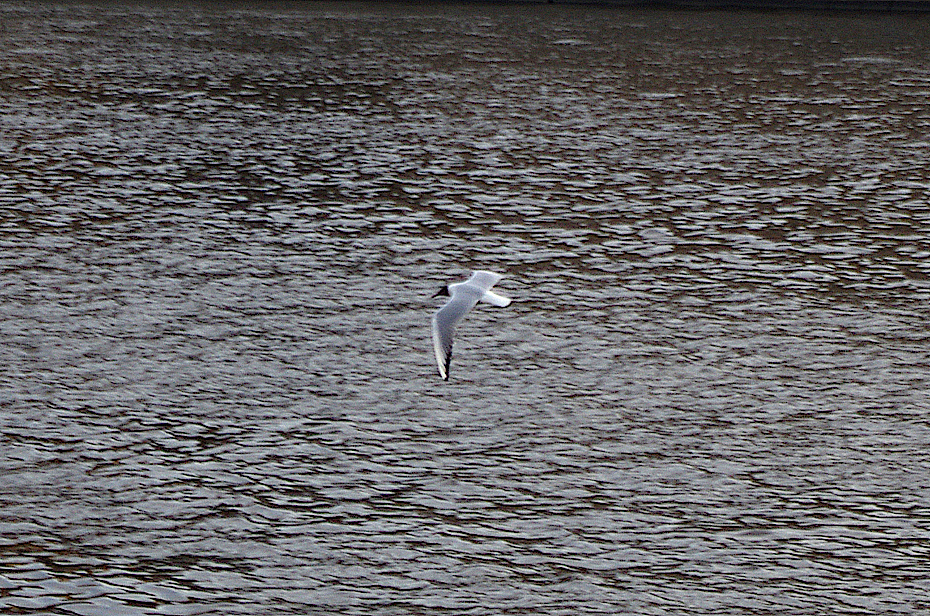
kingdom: Animalia
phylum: Chordata
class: Aves
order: Charadriiformes
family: Laridae
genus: Chroicocephalus
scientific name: Chroicocephalus ridibundus
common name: Black-headed gull
